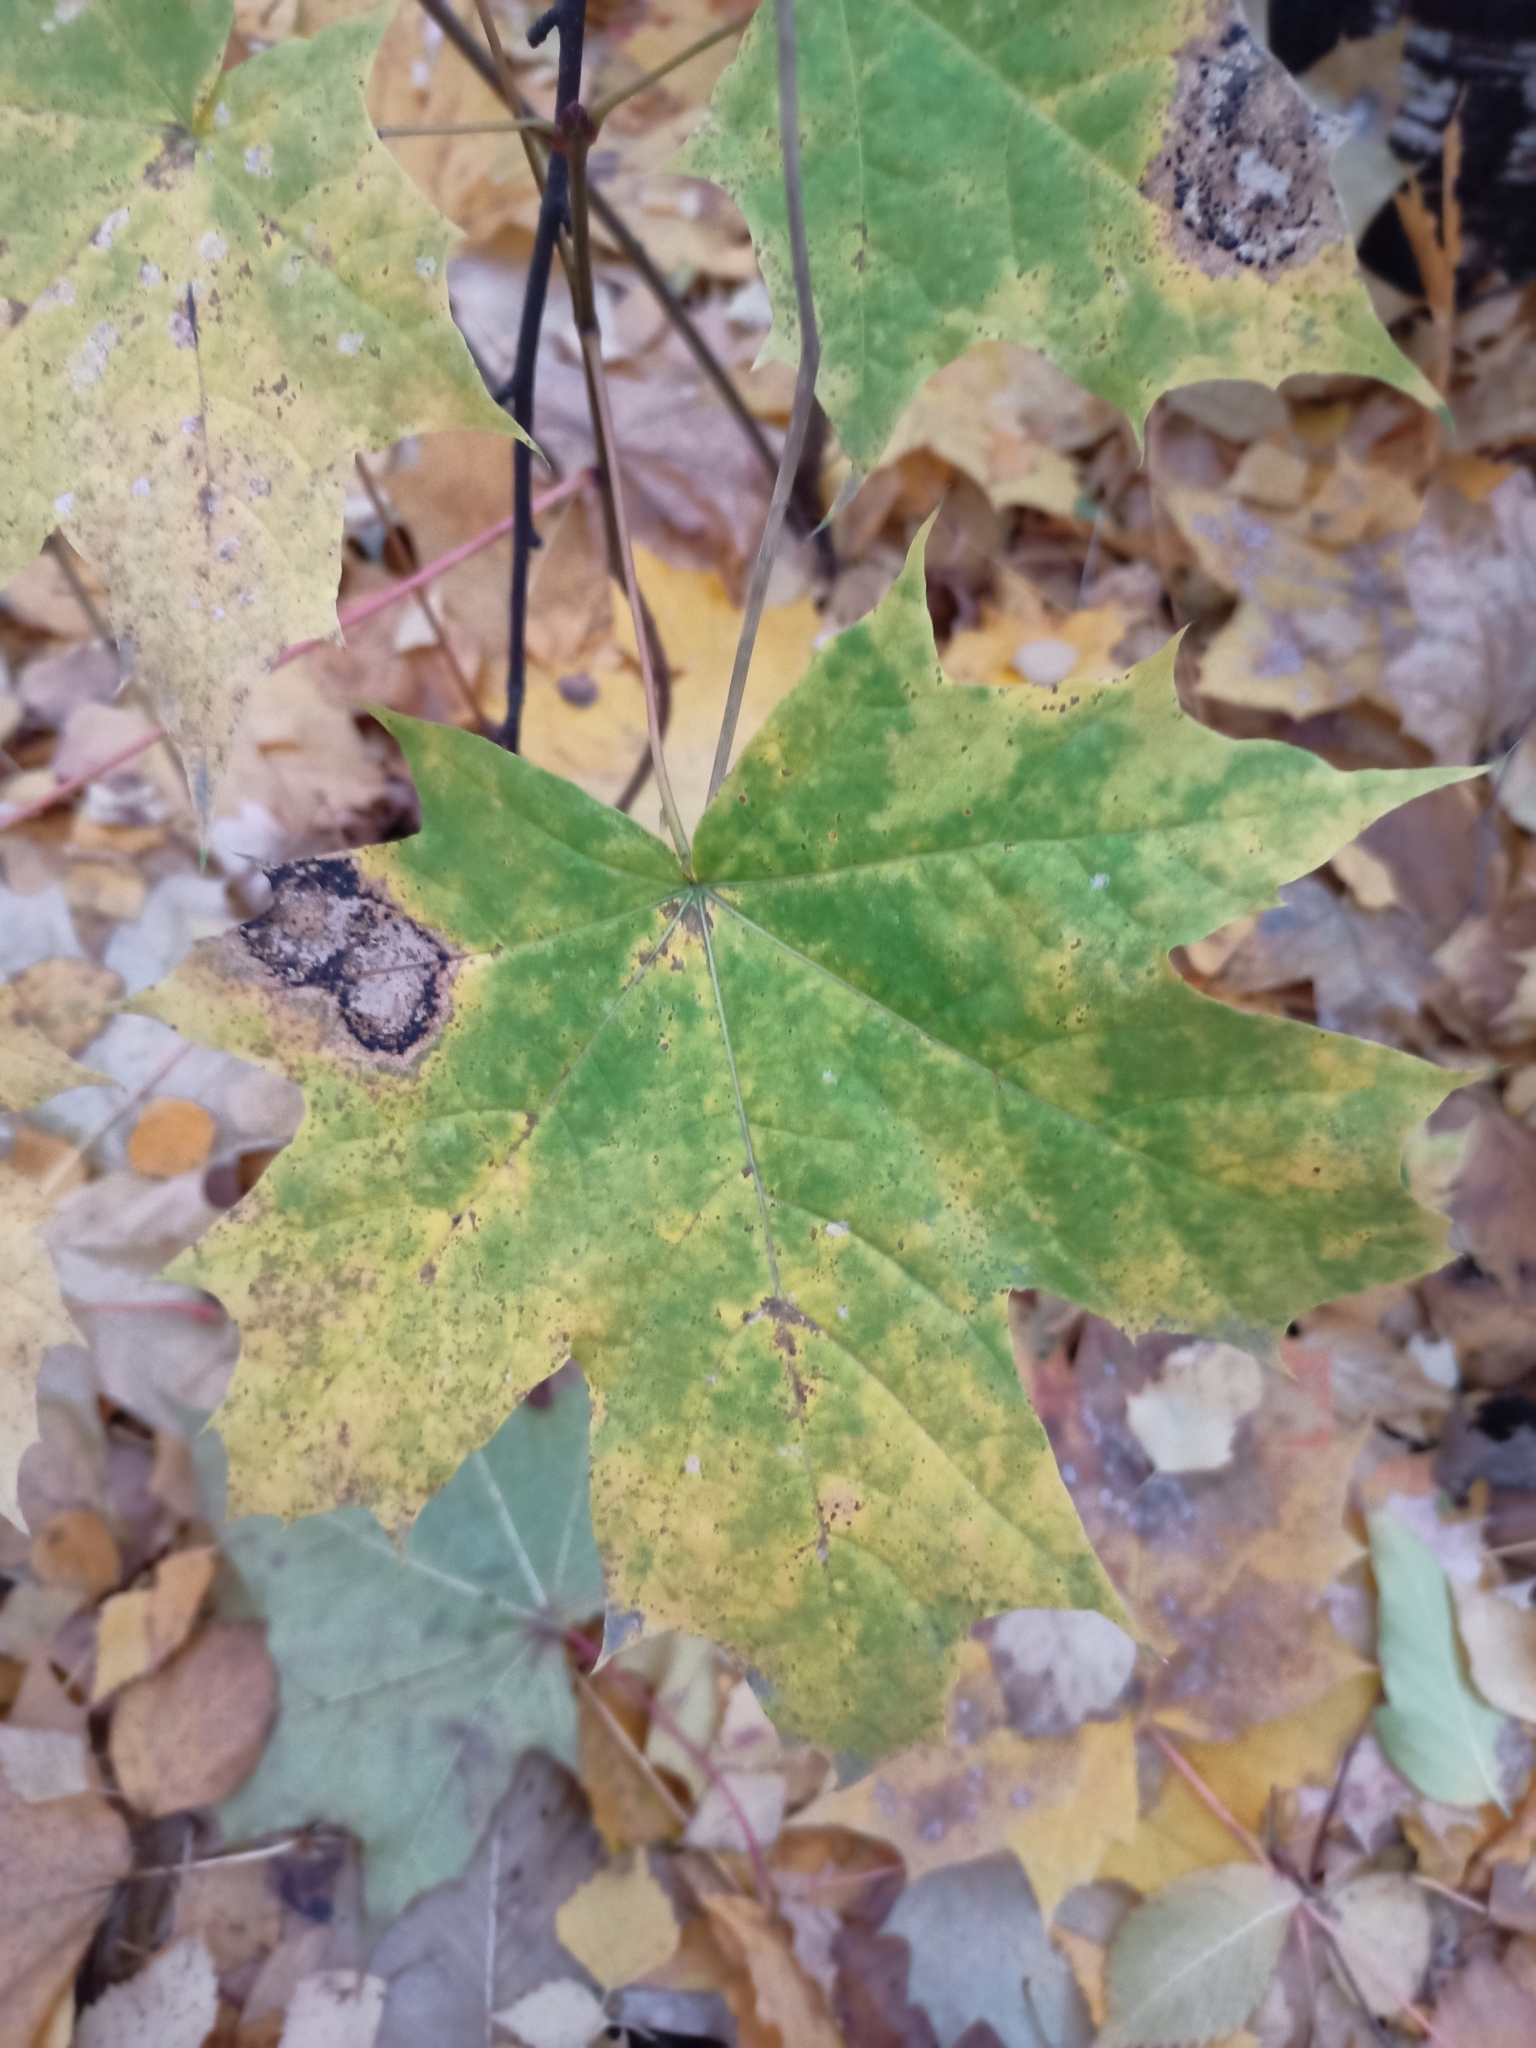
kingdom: Plantae
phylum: Tracheophyta
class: Magnoliopsida
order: Sapindales
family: Sapindaceae
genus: Acer
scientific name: Acer platanoides
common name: Norway maple
